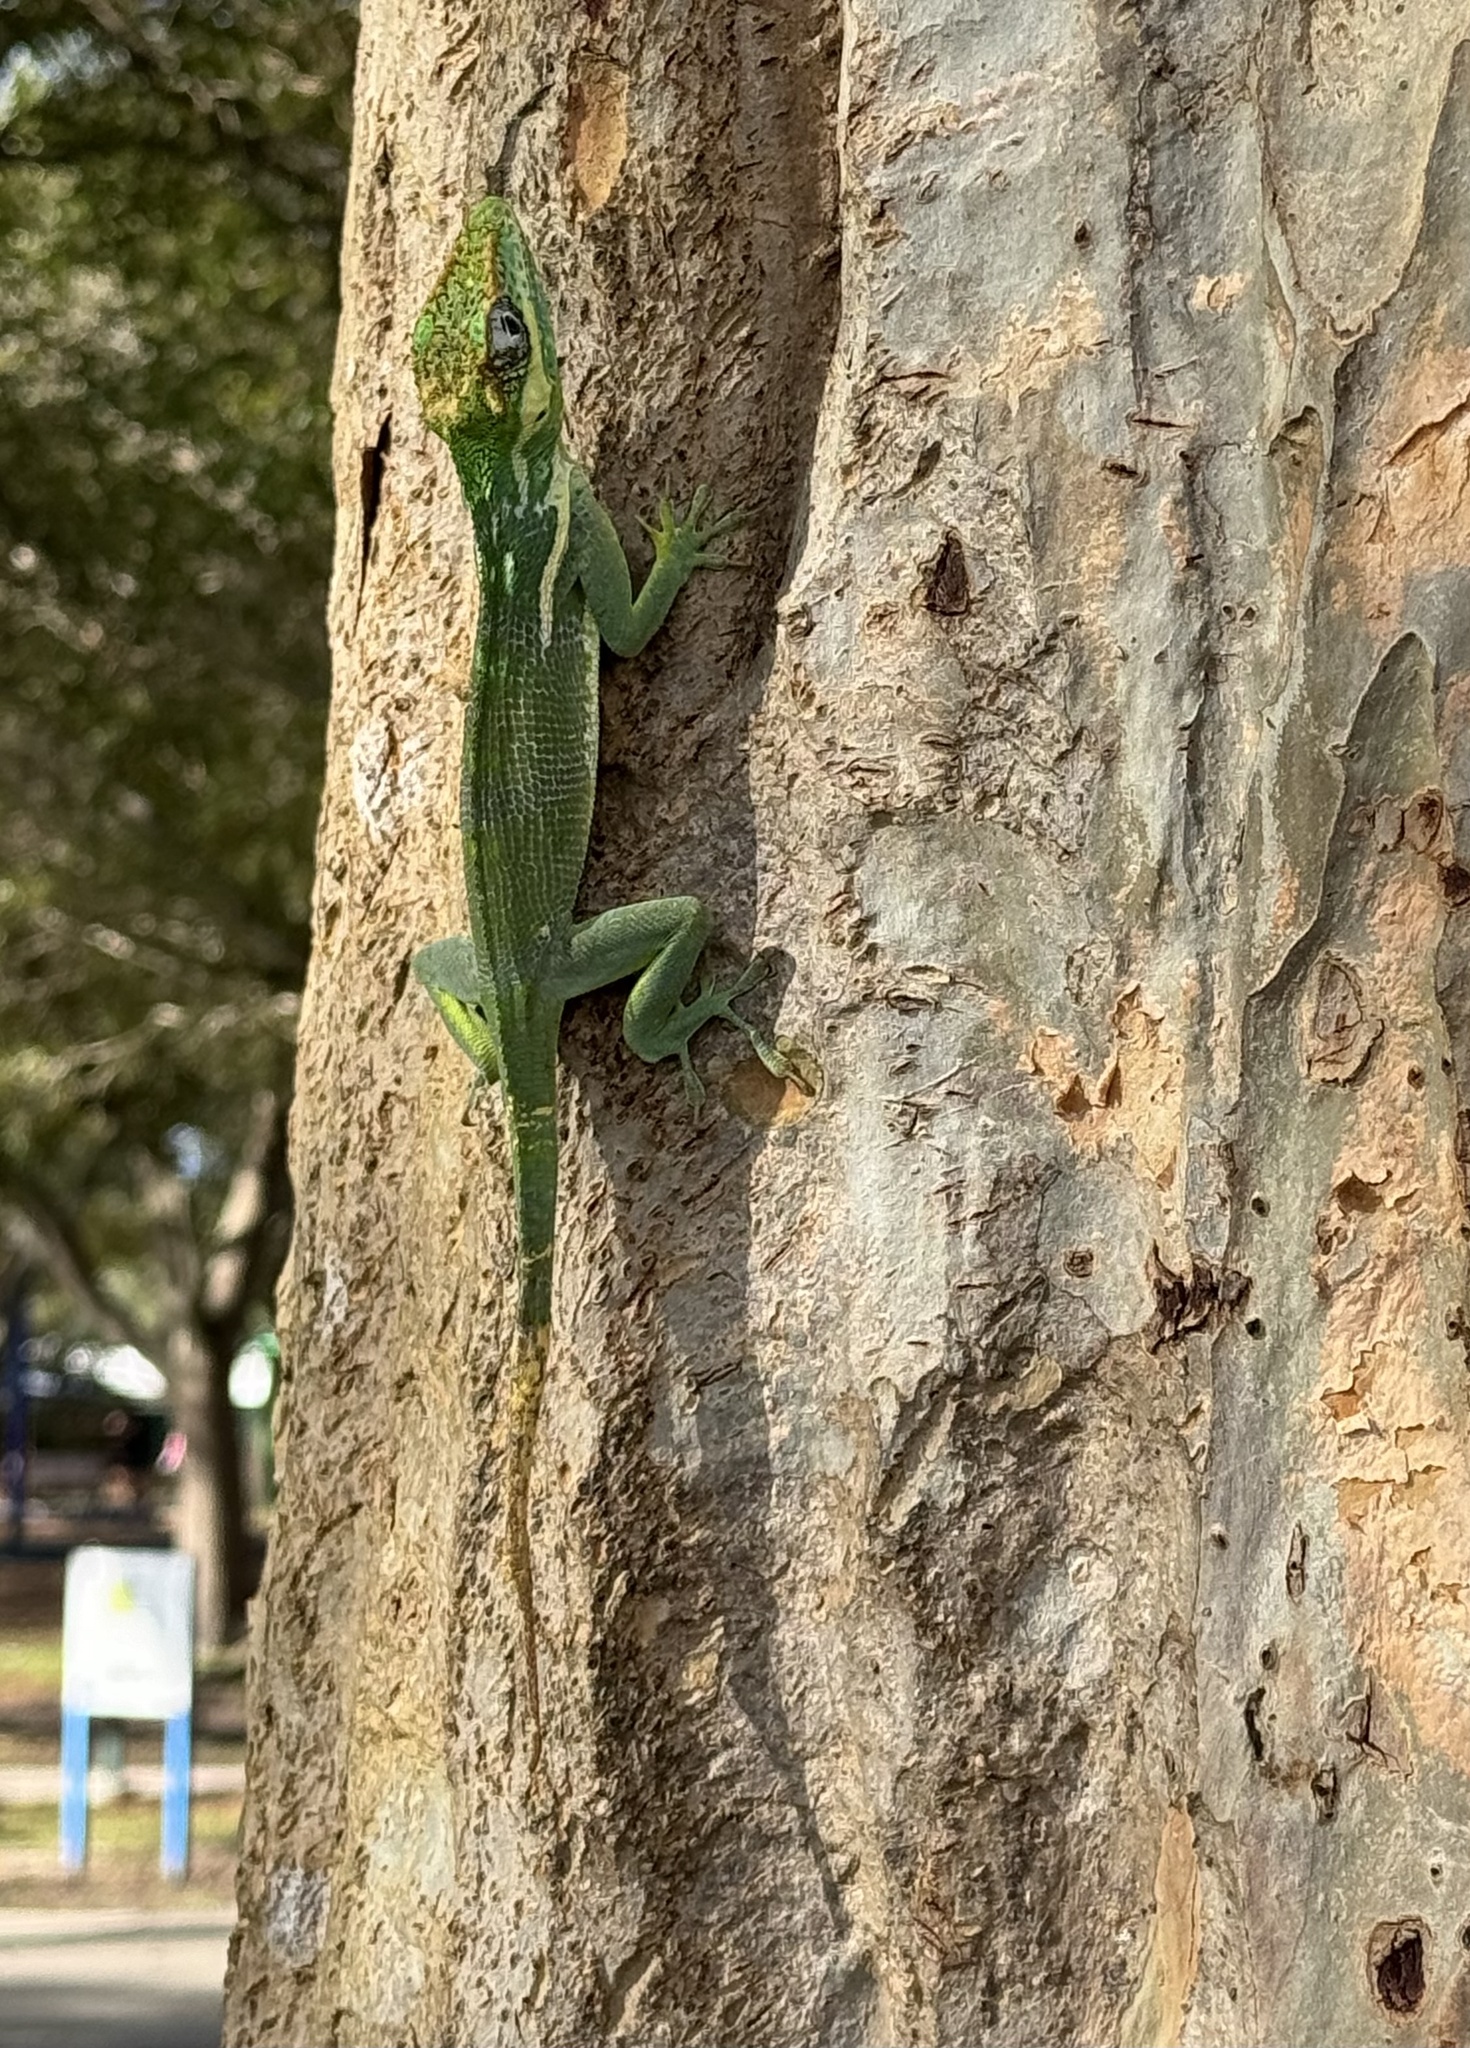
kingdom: Animalia
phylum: Chordata
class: Squamata
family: Dactyloidae
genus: Anolis
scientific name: Anolis equestris
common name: Knight anole
